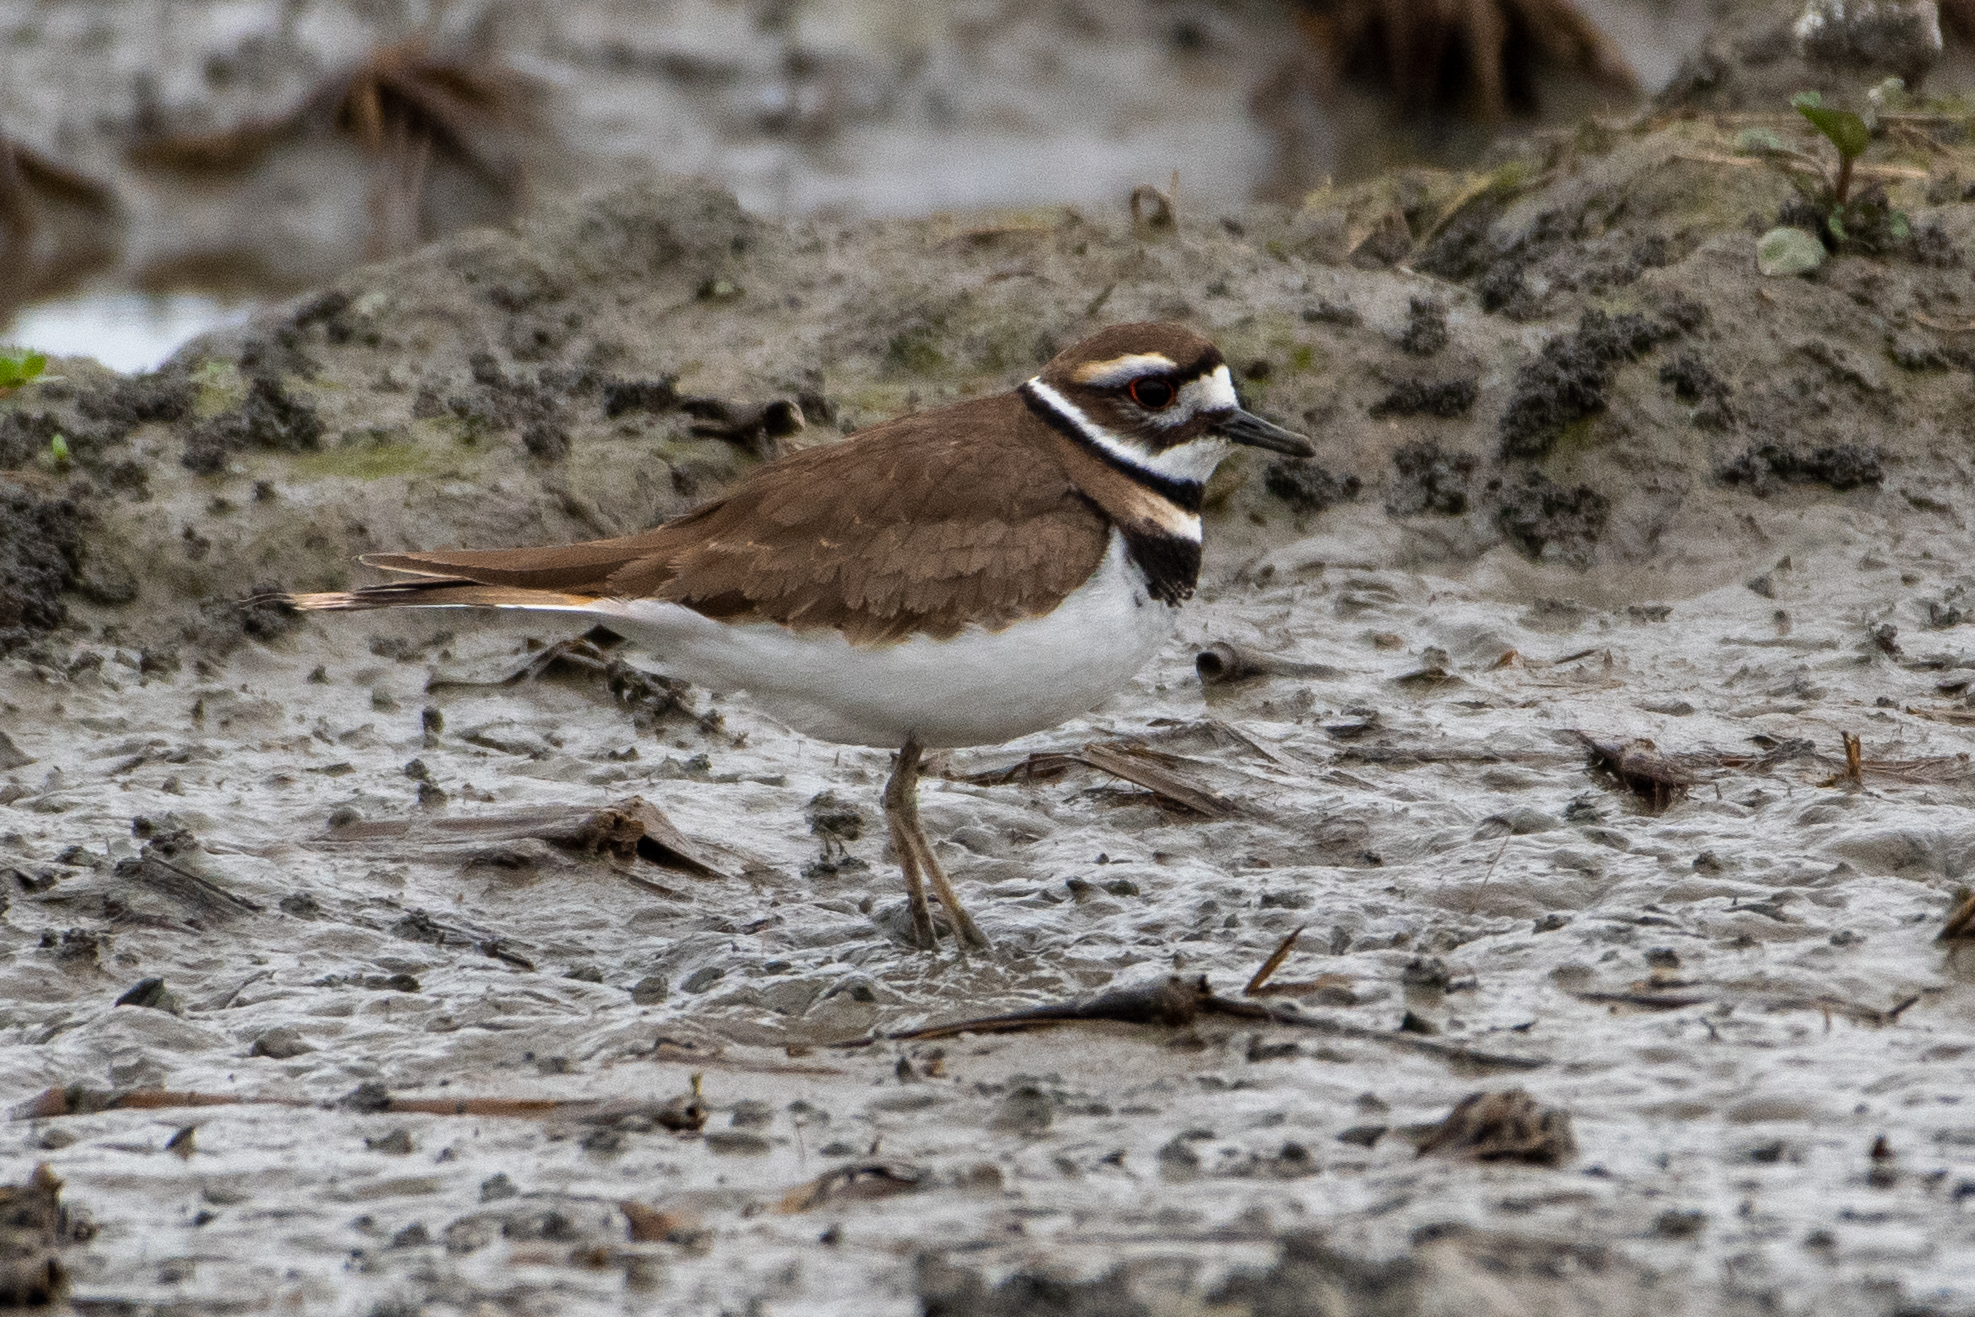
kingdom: Animalia
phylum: Chordata
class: Aves
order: Charadriiformes
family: Charadriidae
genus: Charadrius
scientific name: Charadrius vociferus
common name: Killdeer
